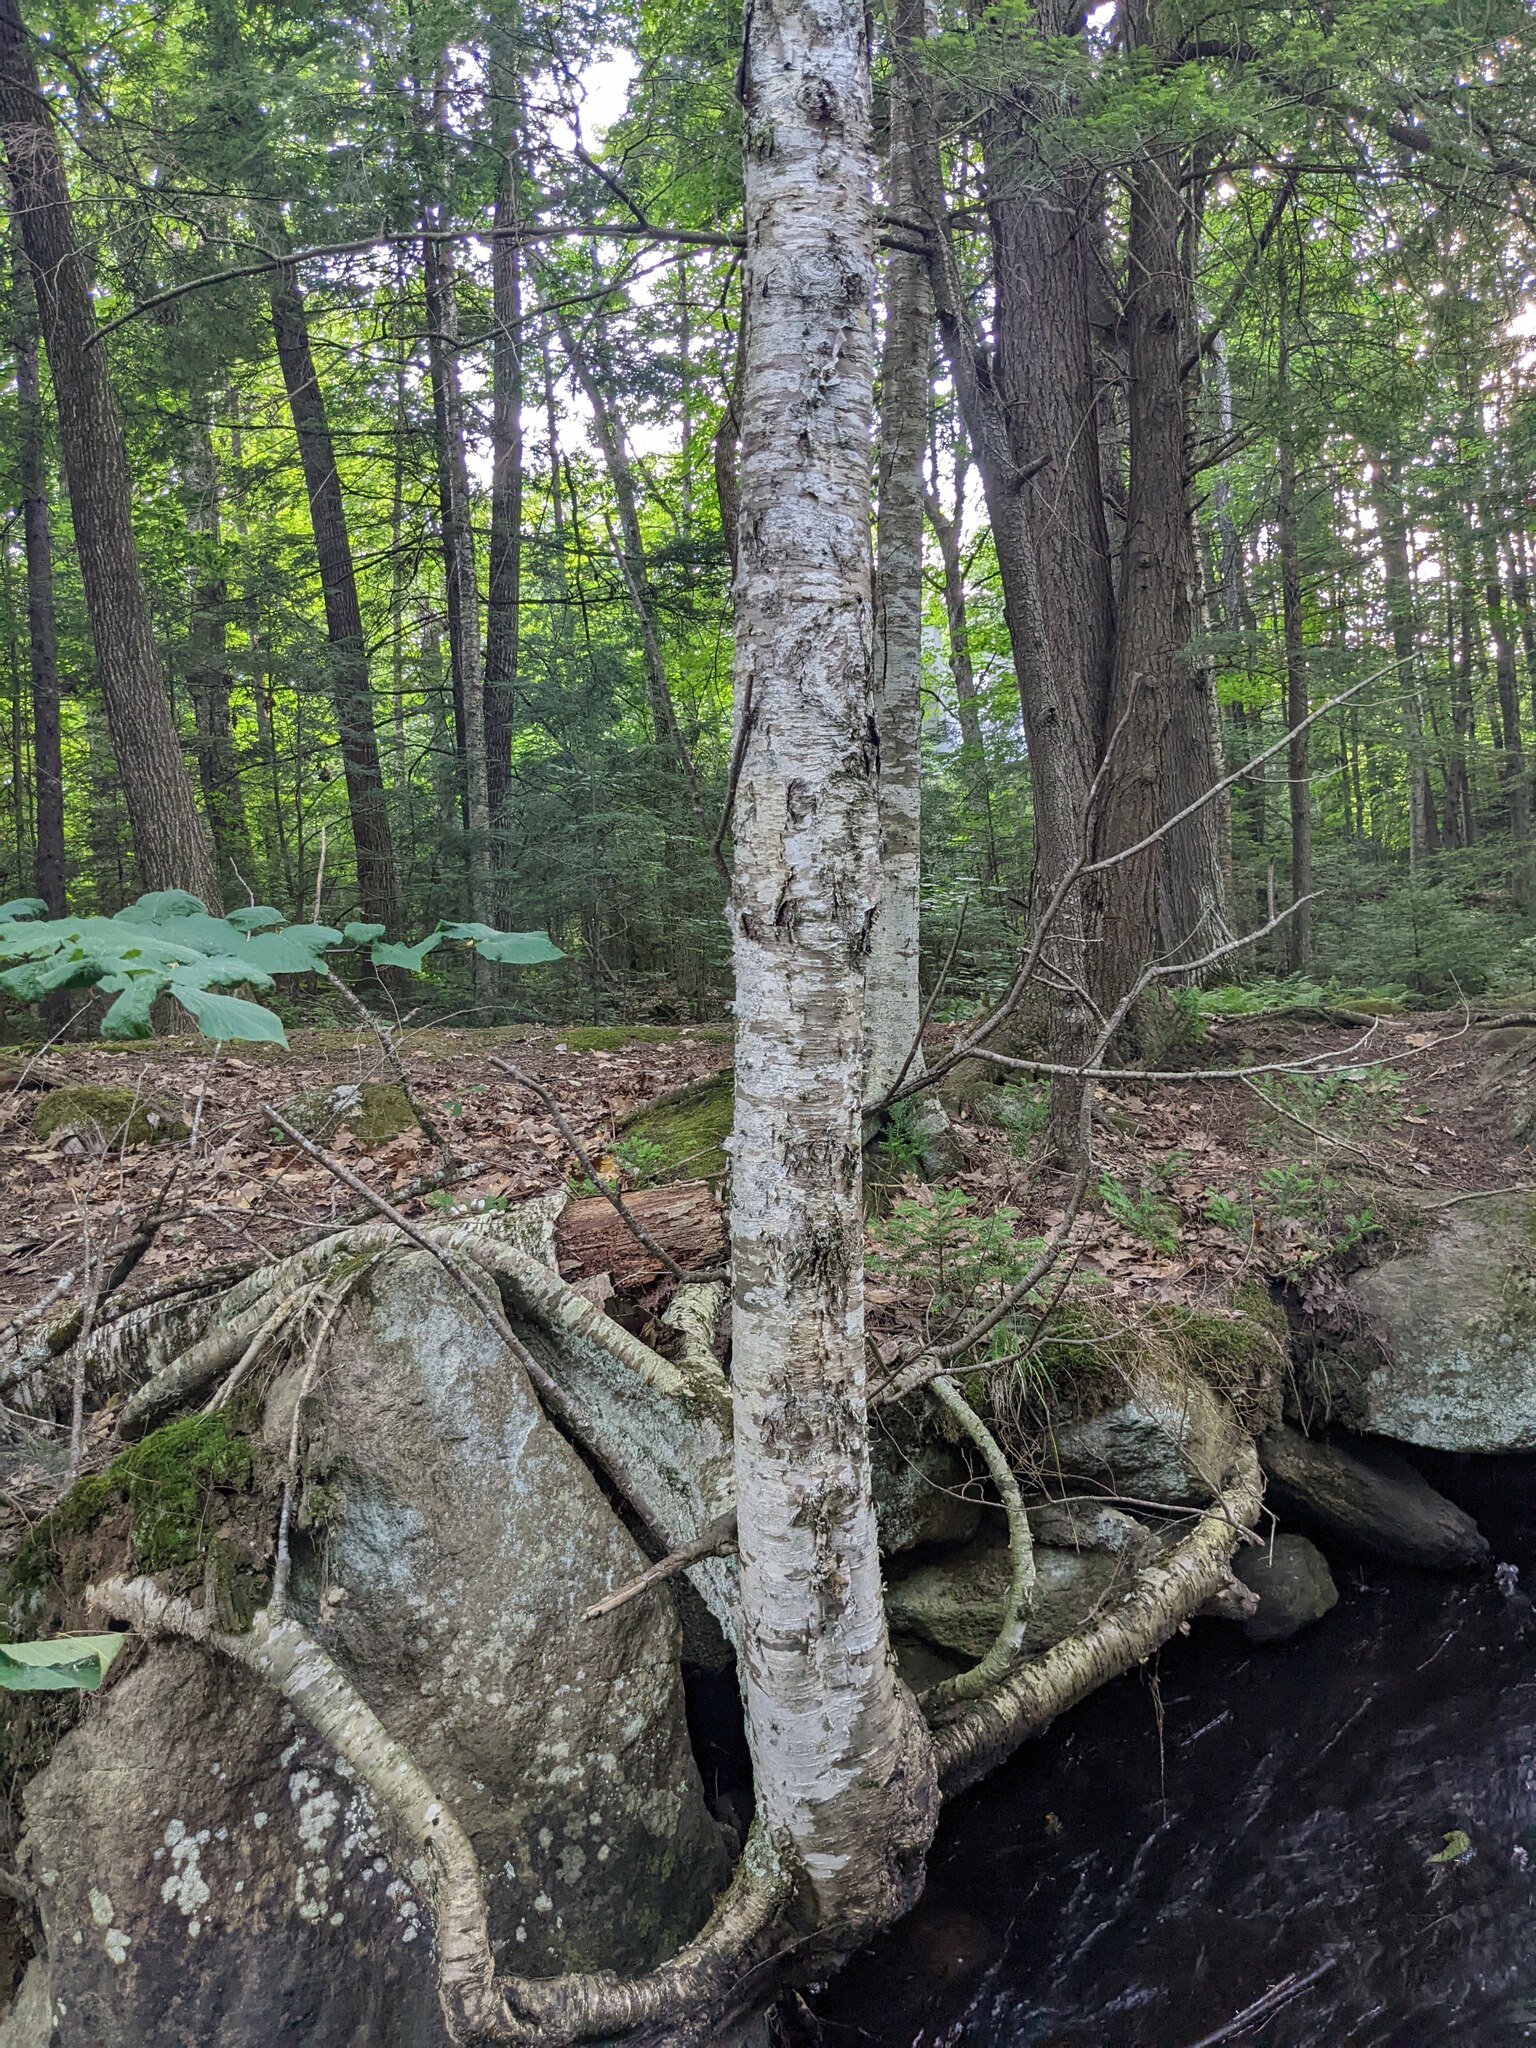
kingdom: Plantae
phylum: Tracheophyta
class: Magnoliopsida
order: Fagales
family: Betulaceae
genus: Betula
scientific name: Betula alleghaniensis
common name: Yellow birch
